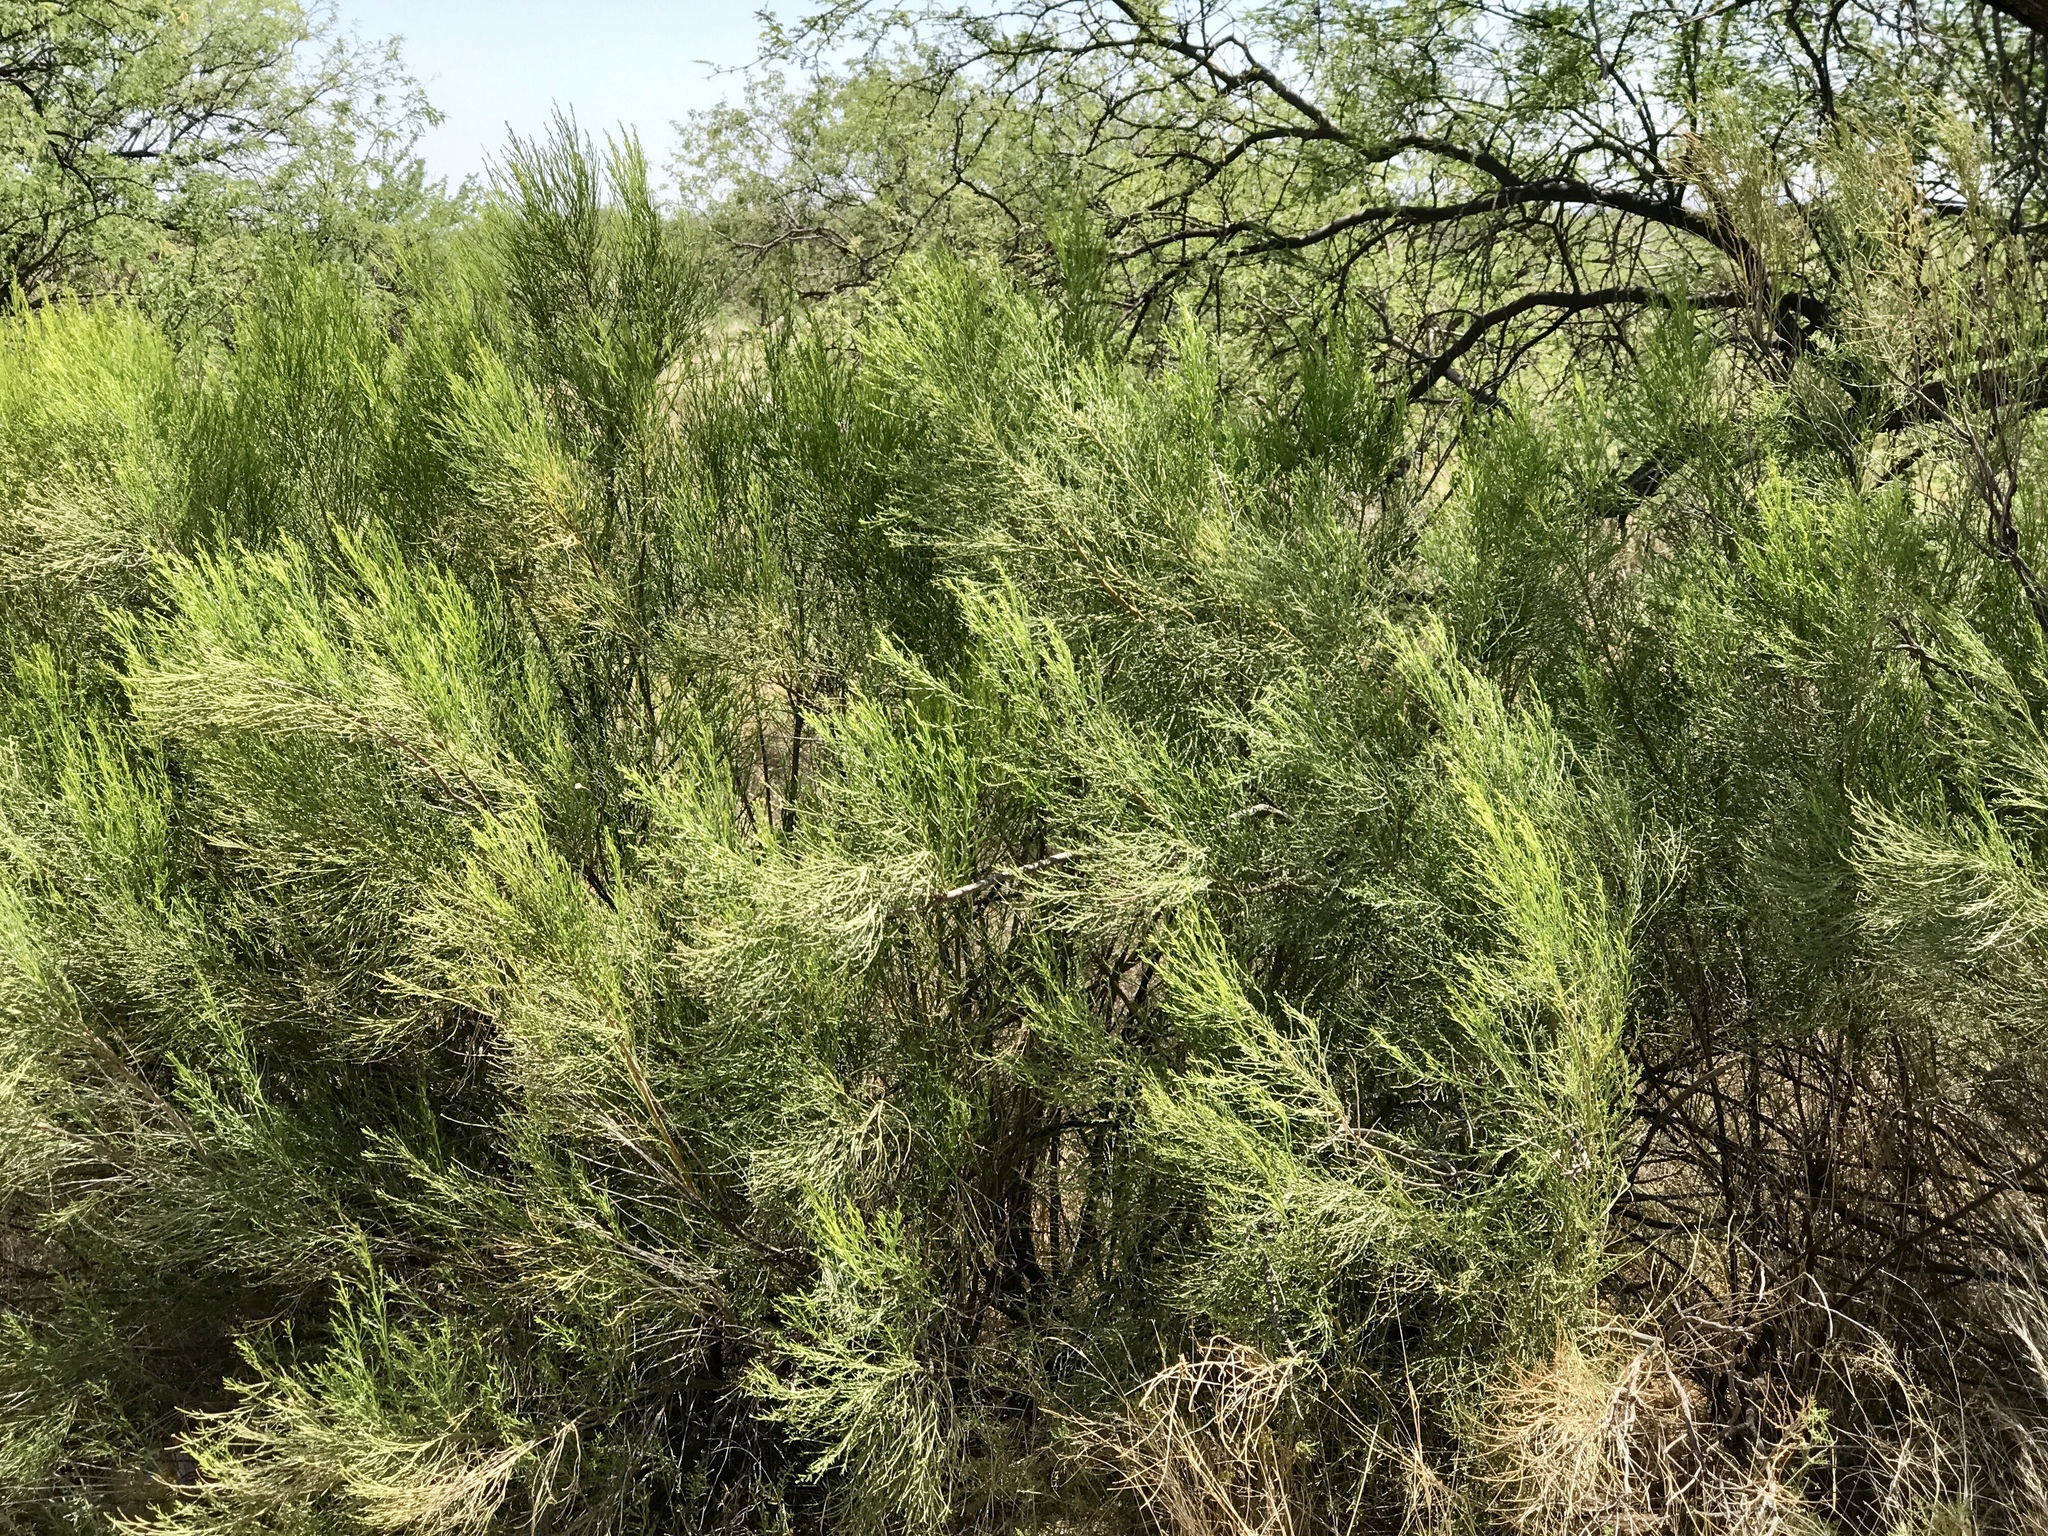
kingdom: Plantae
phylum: Tracheophyta
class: Magnoliopsida
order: Asterales
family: Asteraceae
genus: Baccharis
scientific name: Baccharis sarothroides
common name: Desert-broom
